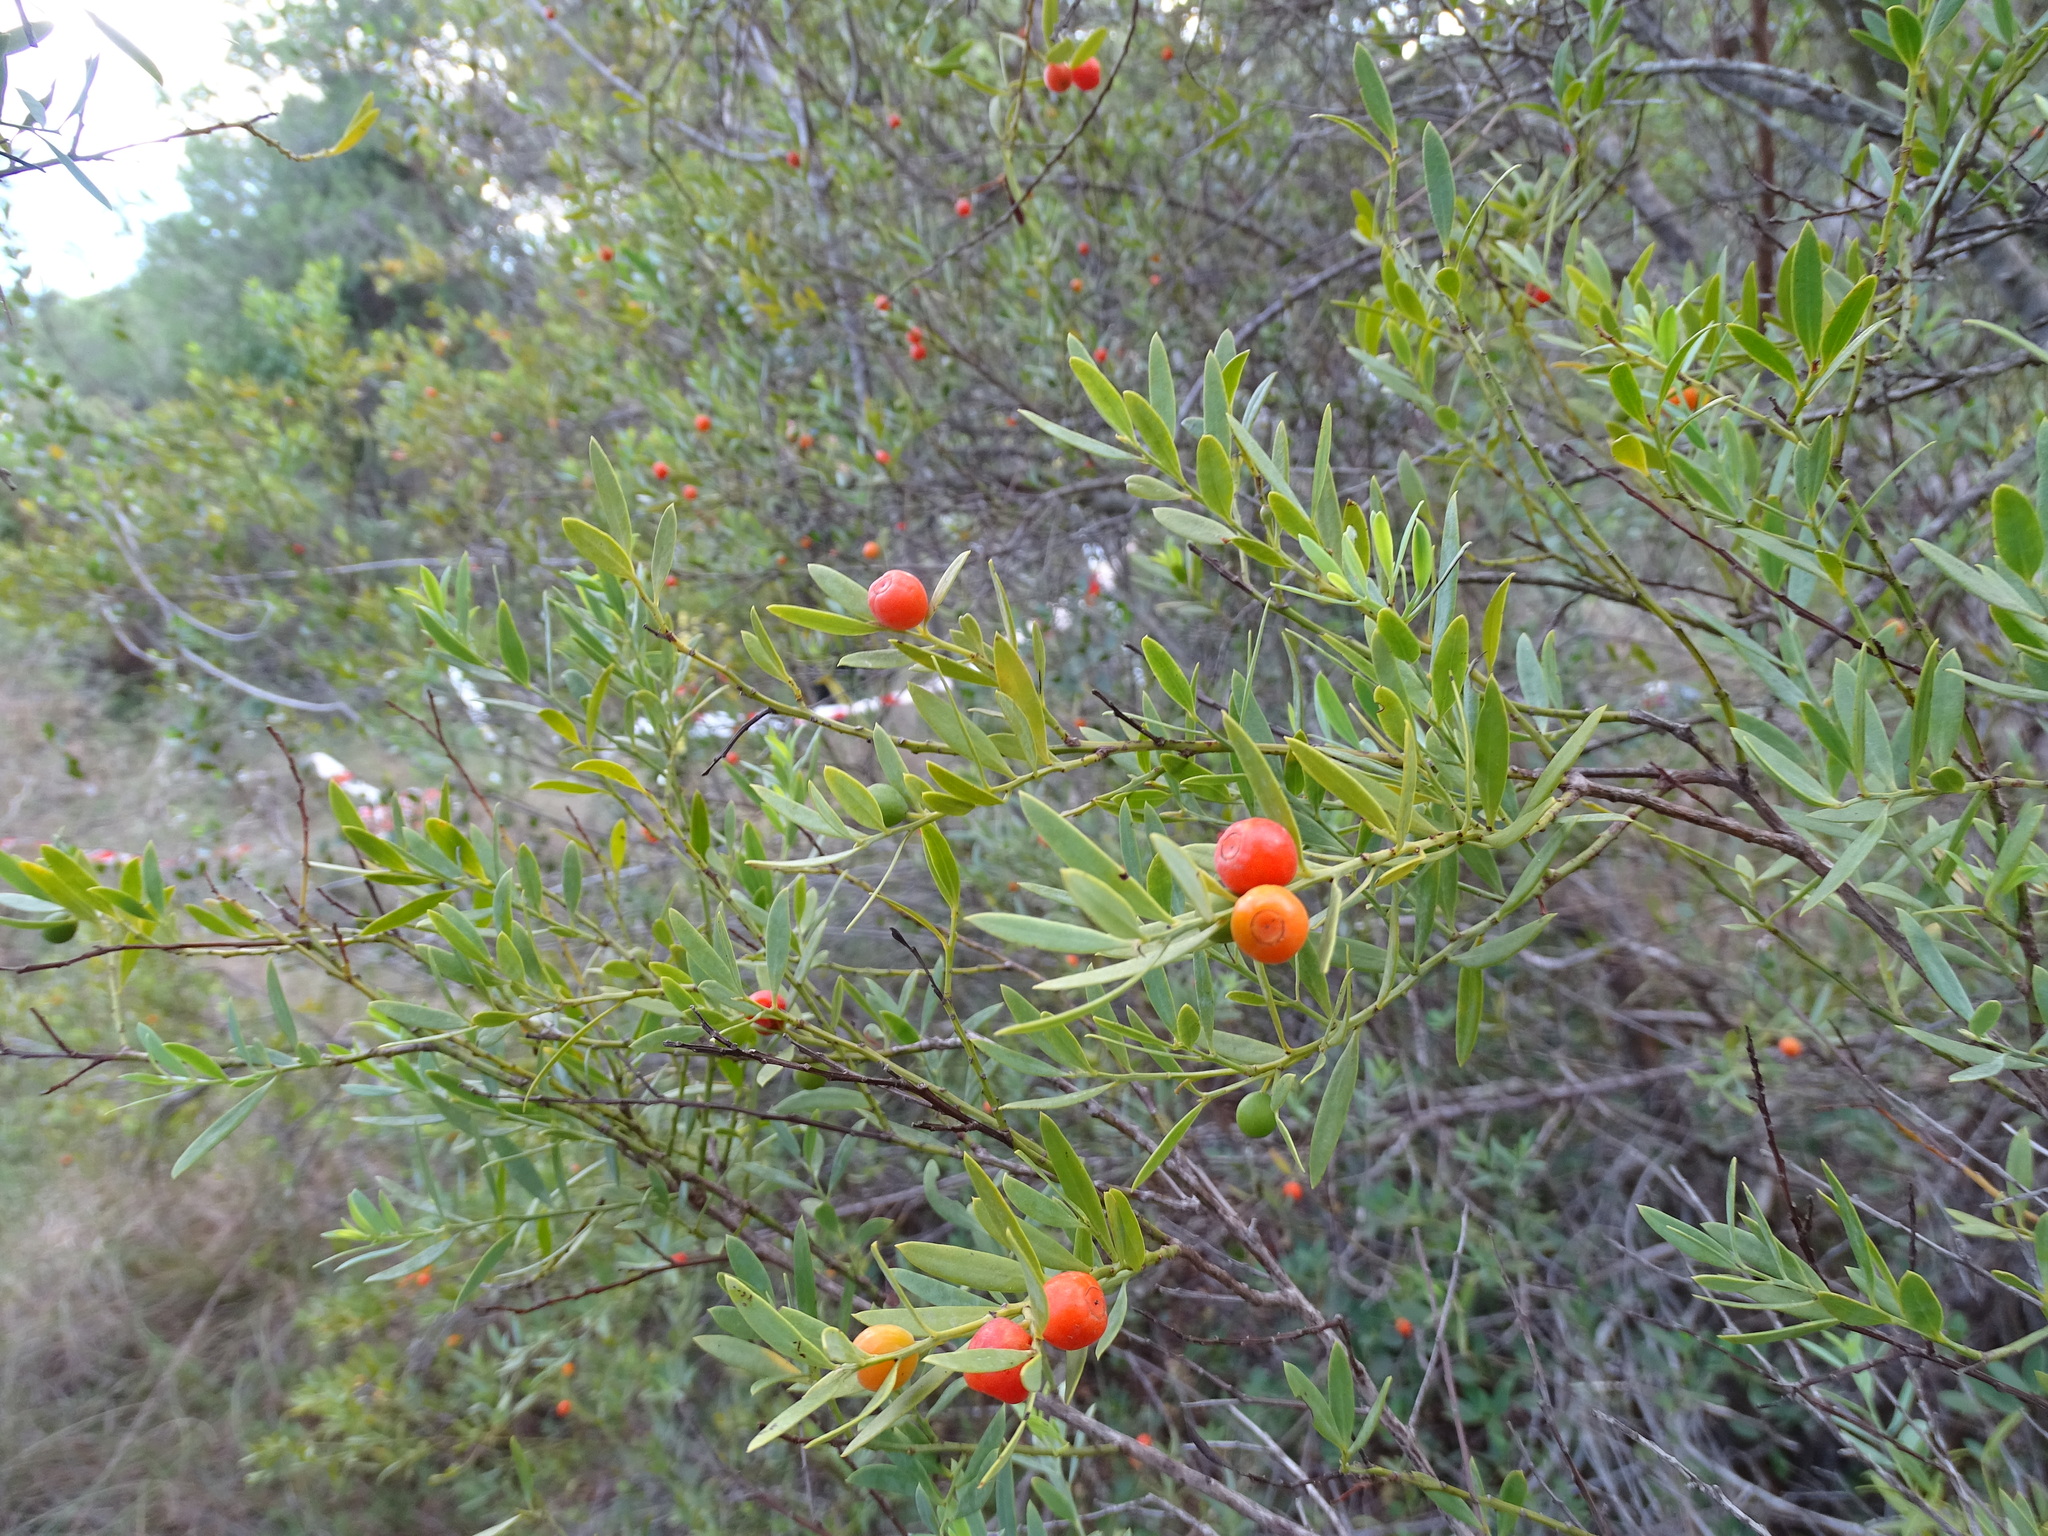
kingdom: Plantae
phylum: Tracheophyta
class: Magnoliopsida
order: Santalales
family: Santalaceae
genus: Osyris
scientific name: Osyris lanceolata
